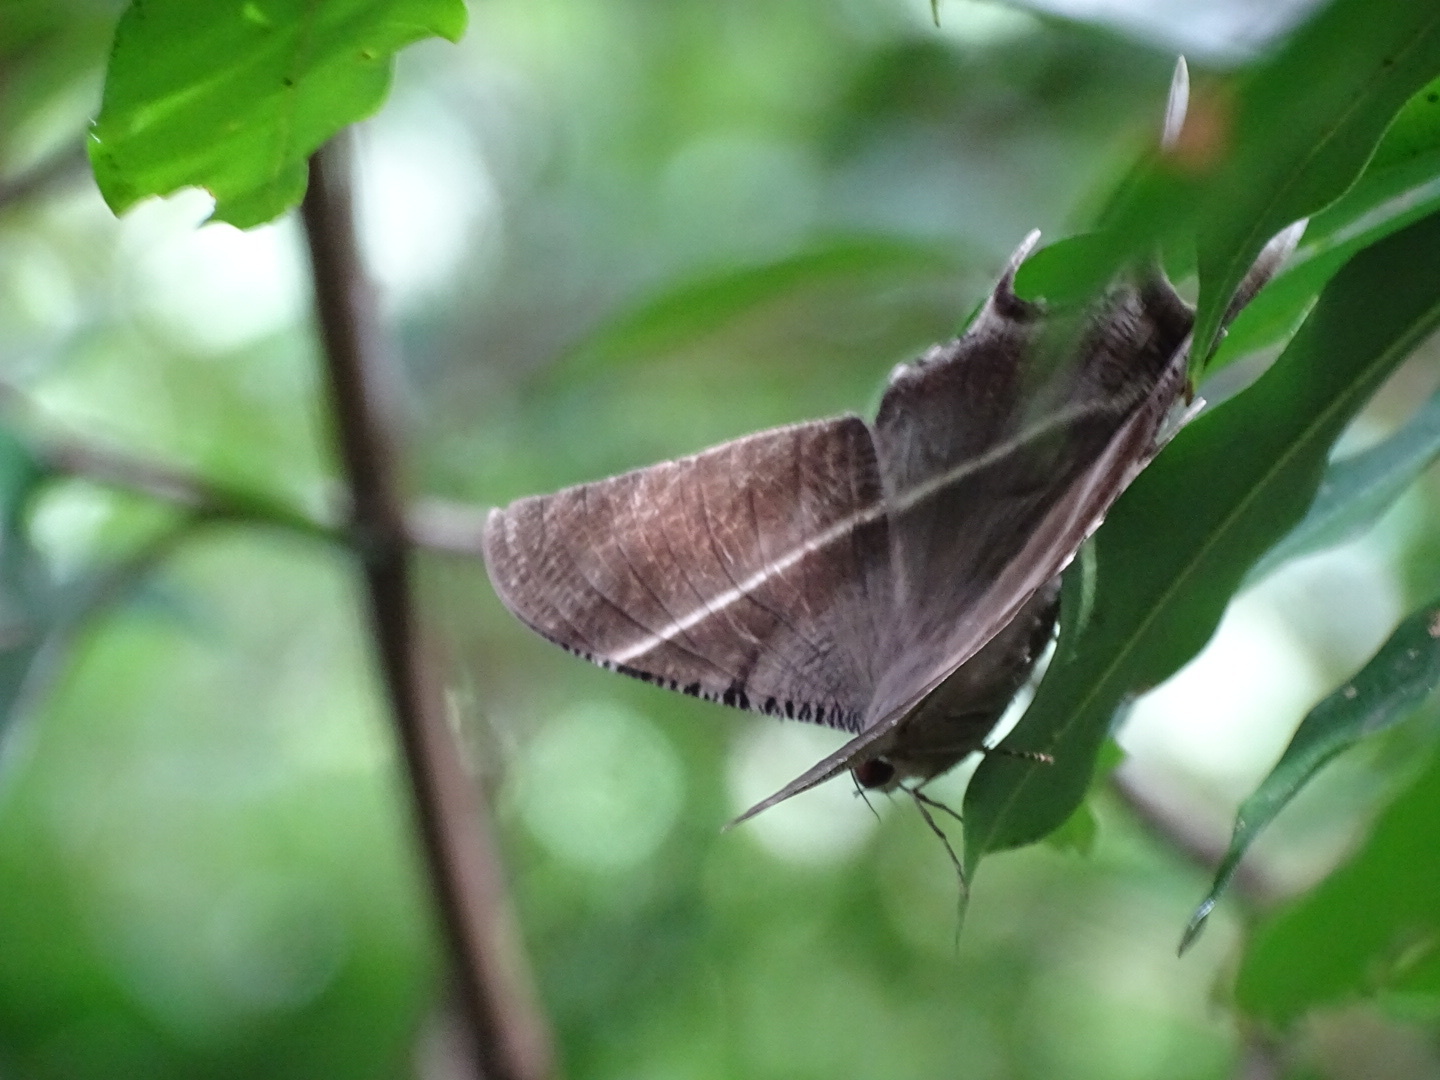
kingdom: Animalia
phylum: Arthropoda
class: Insecta
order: Lepidoptera
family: Uraniidae
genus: Lyssa
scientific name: Lyssa zampa
